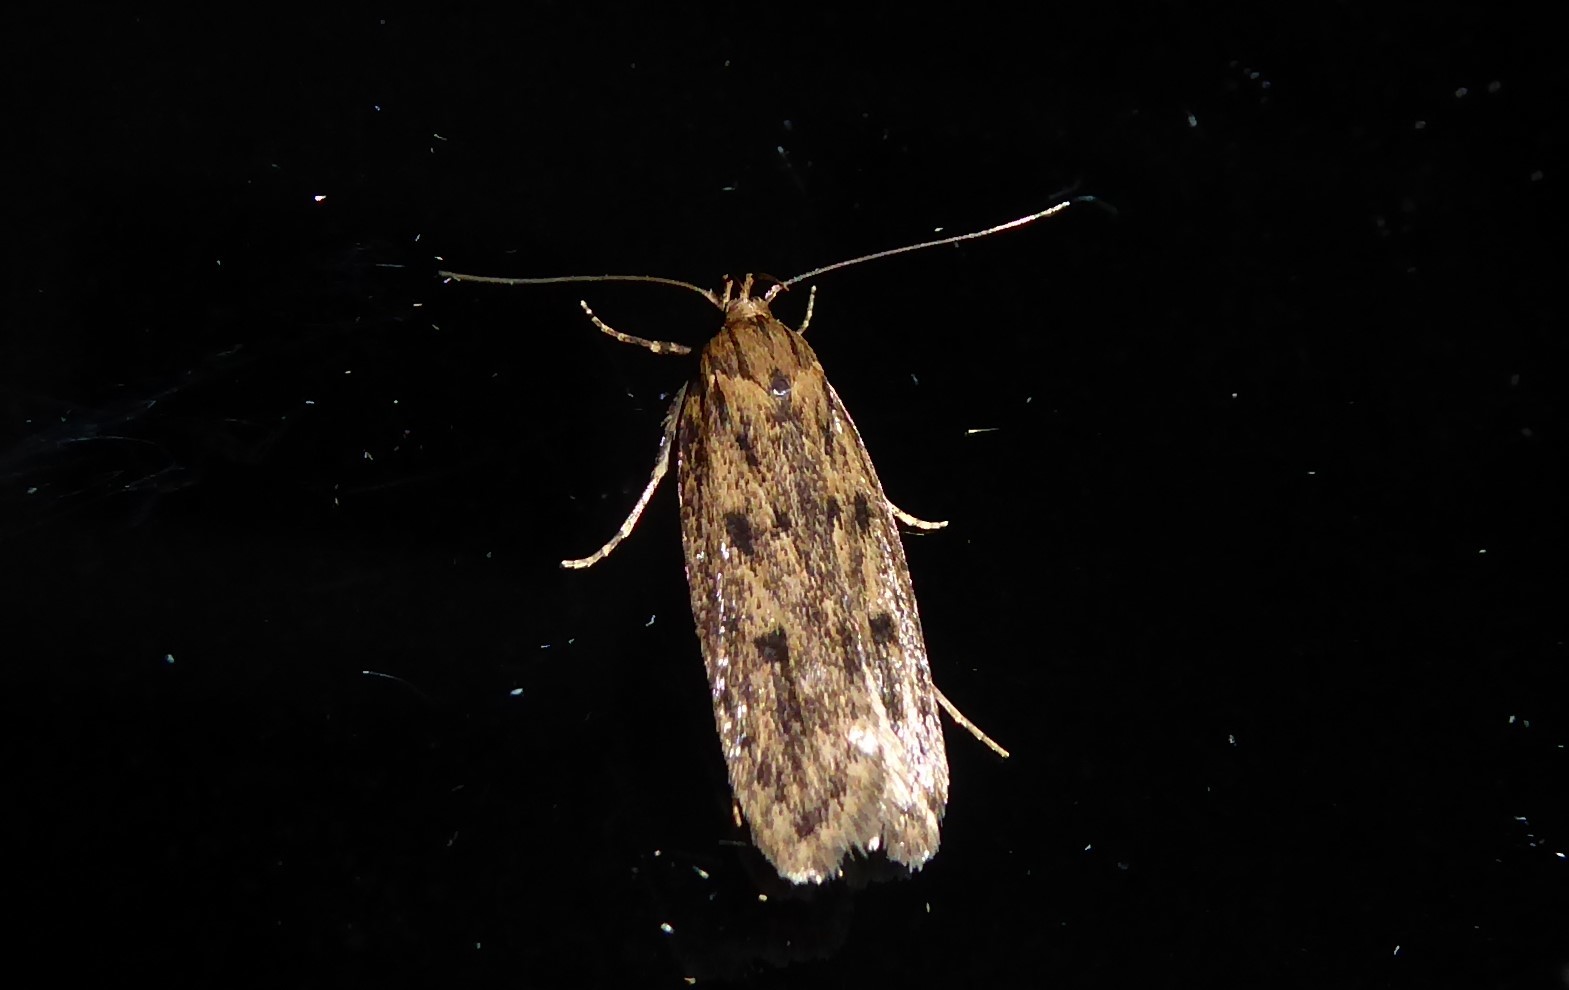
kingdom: Animalia
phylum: Arthropoda
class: Insecta
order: Lepidoptera
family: Oecophoridae
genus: Hofmannophila
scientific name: Hofmannophila pseudospretella
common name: Brown house moth
